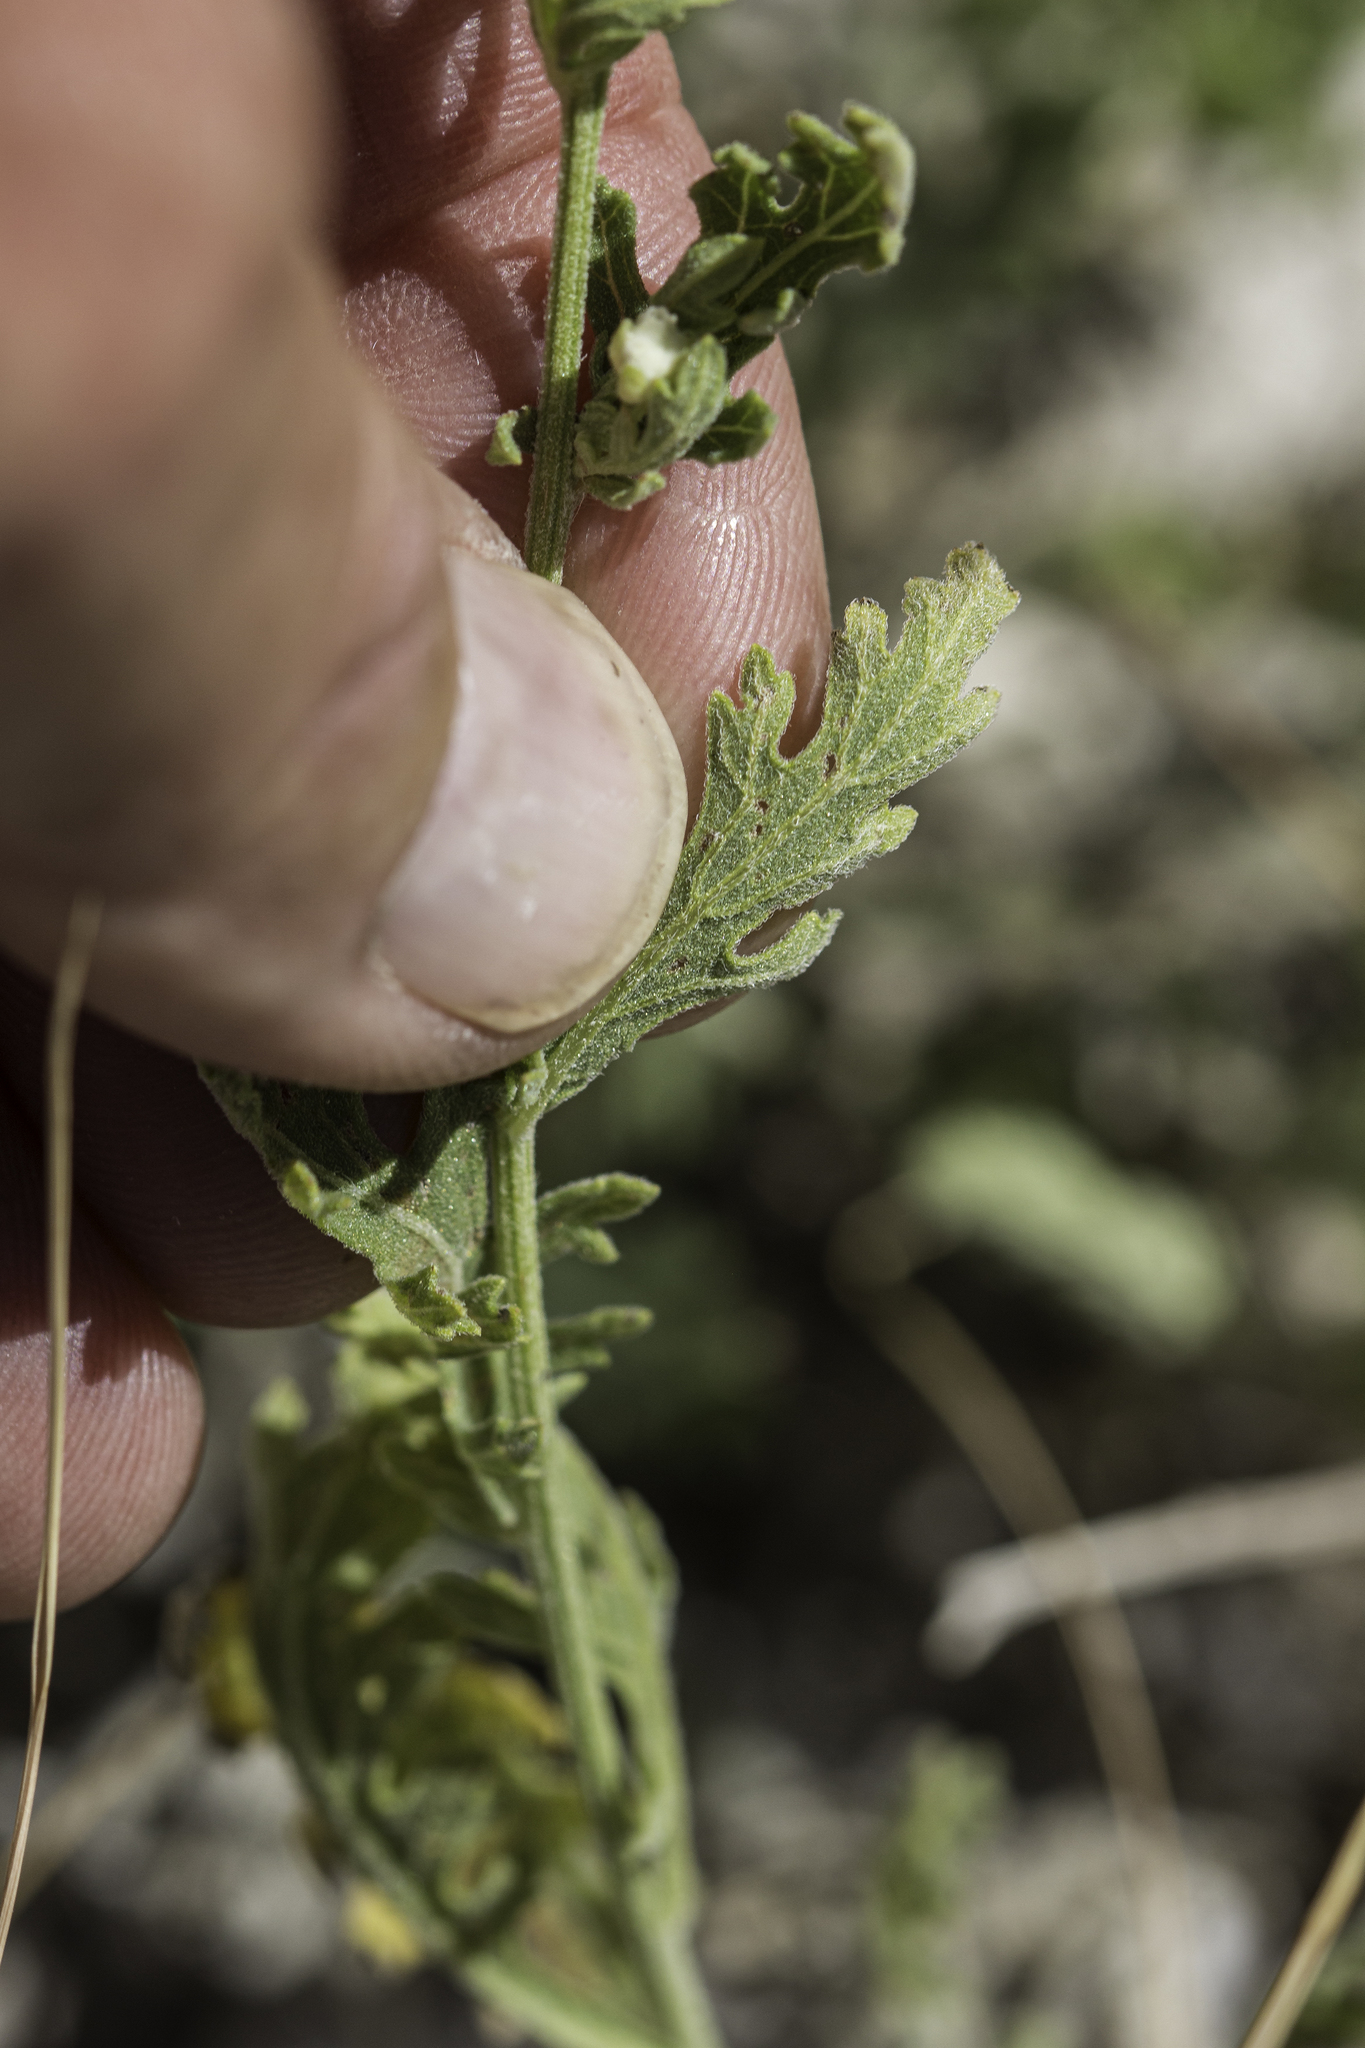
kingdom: Plantae
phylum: Tracheophyta
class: Magnoliopsida
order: Asterales
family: Asteraceae
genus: Parthenium
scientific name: Parthenium confertum
